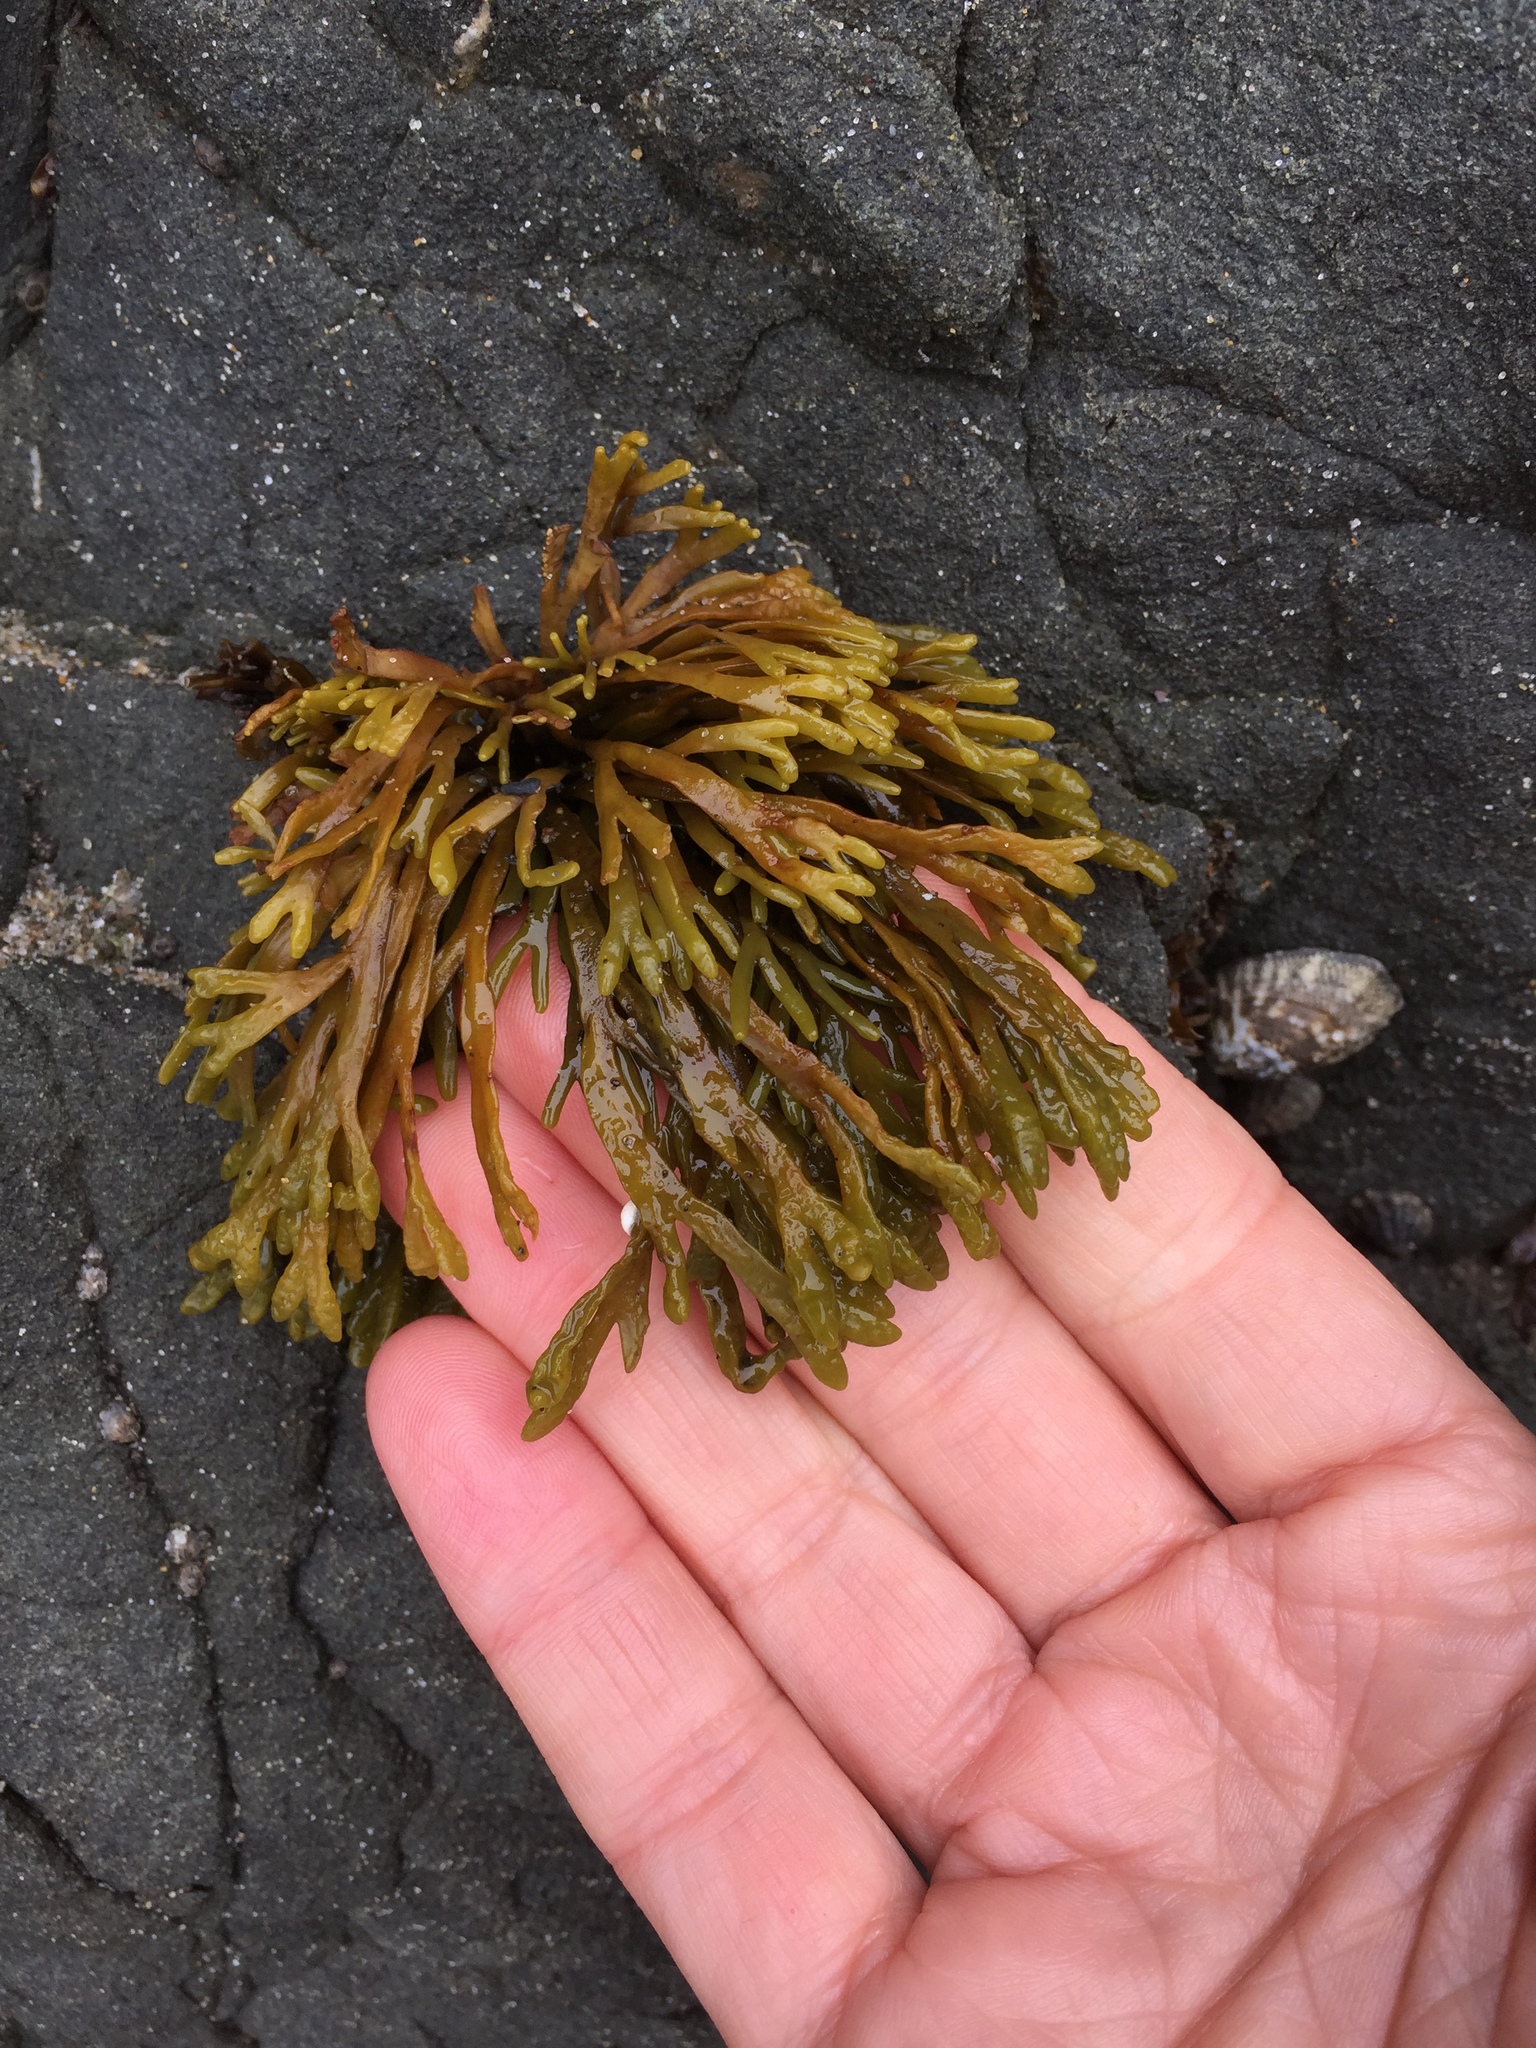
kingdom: Chromista
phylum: Ochrophyta
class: Phaeophyceae
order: Fucales
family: Fucaceae
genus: Pelvetiopsis
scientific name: Pelvetiopsis limitata
